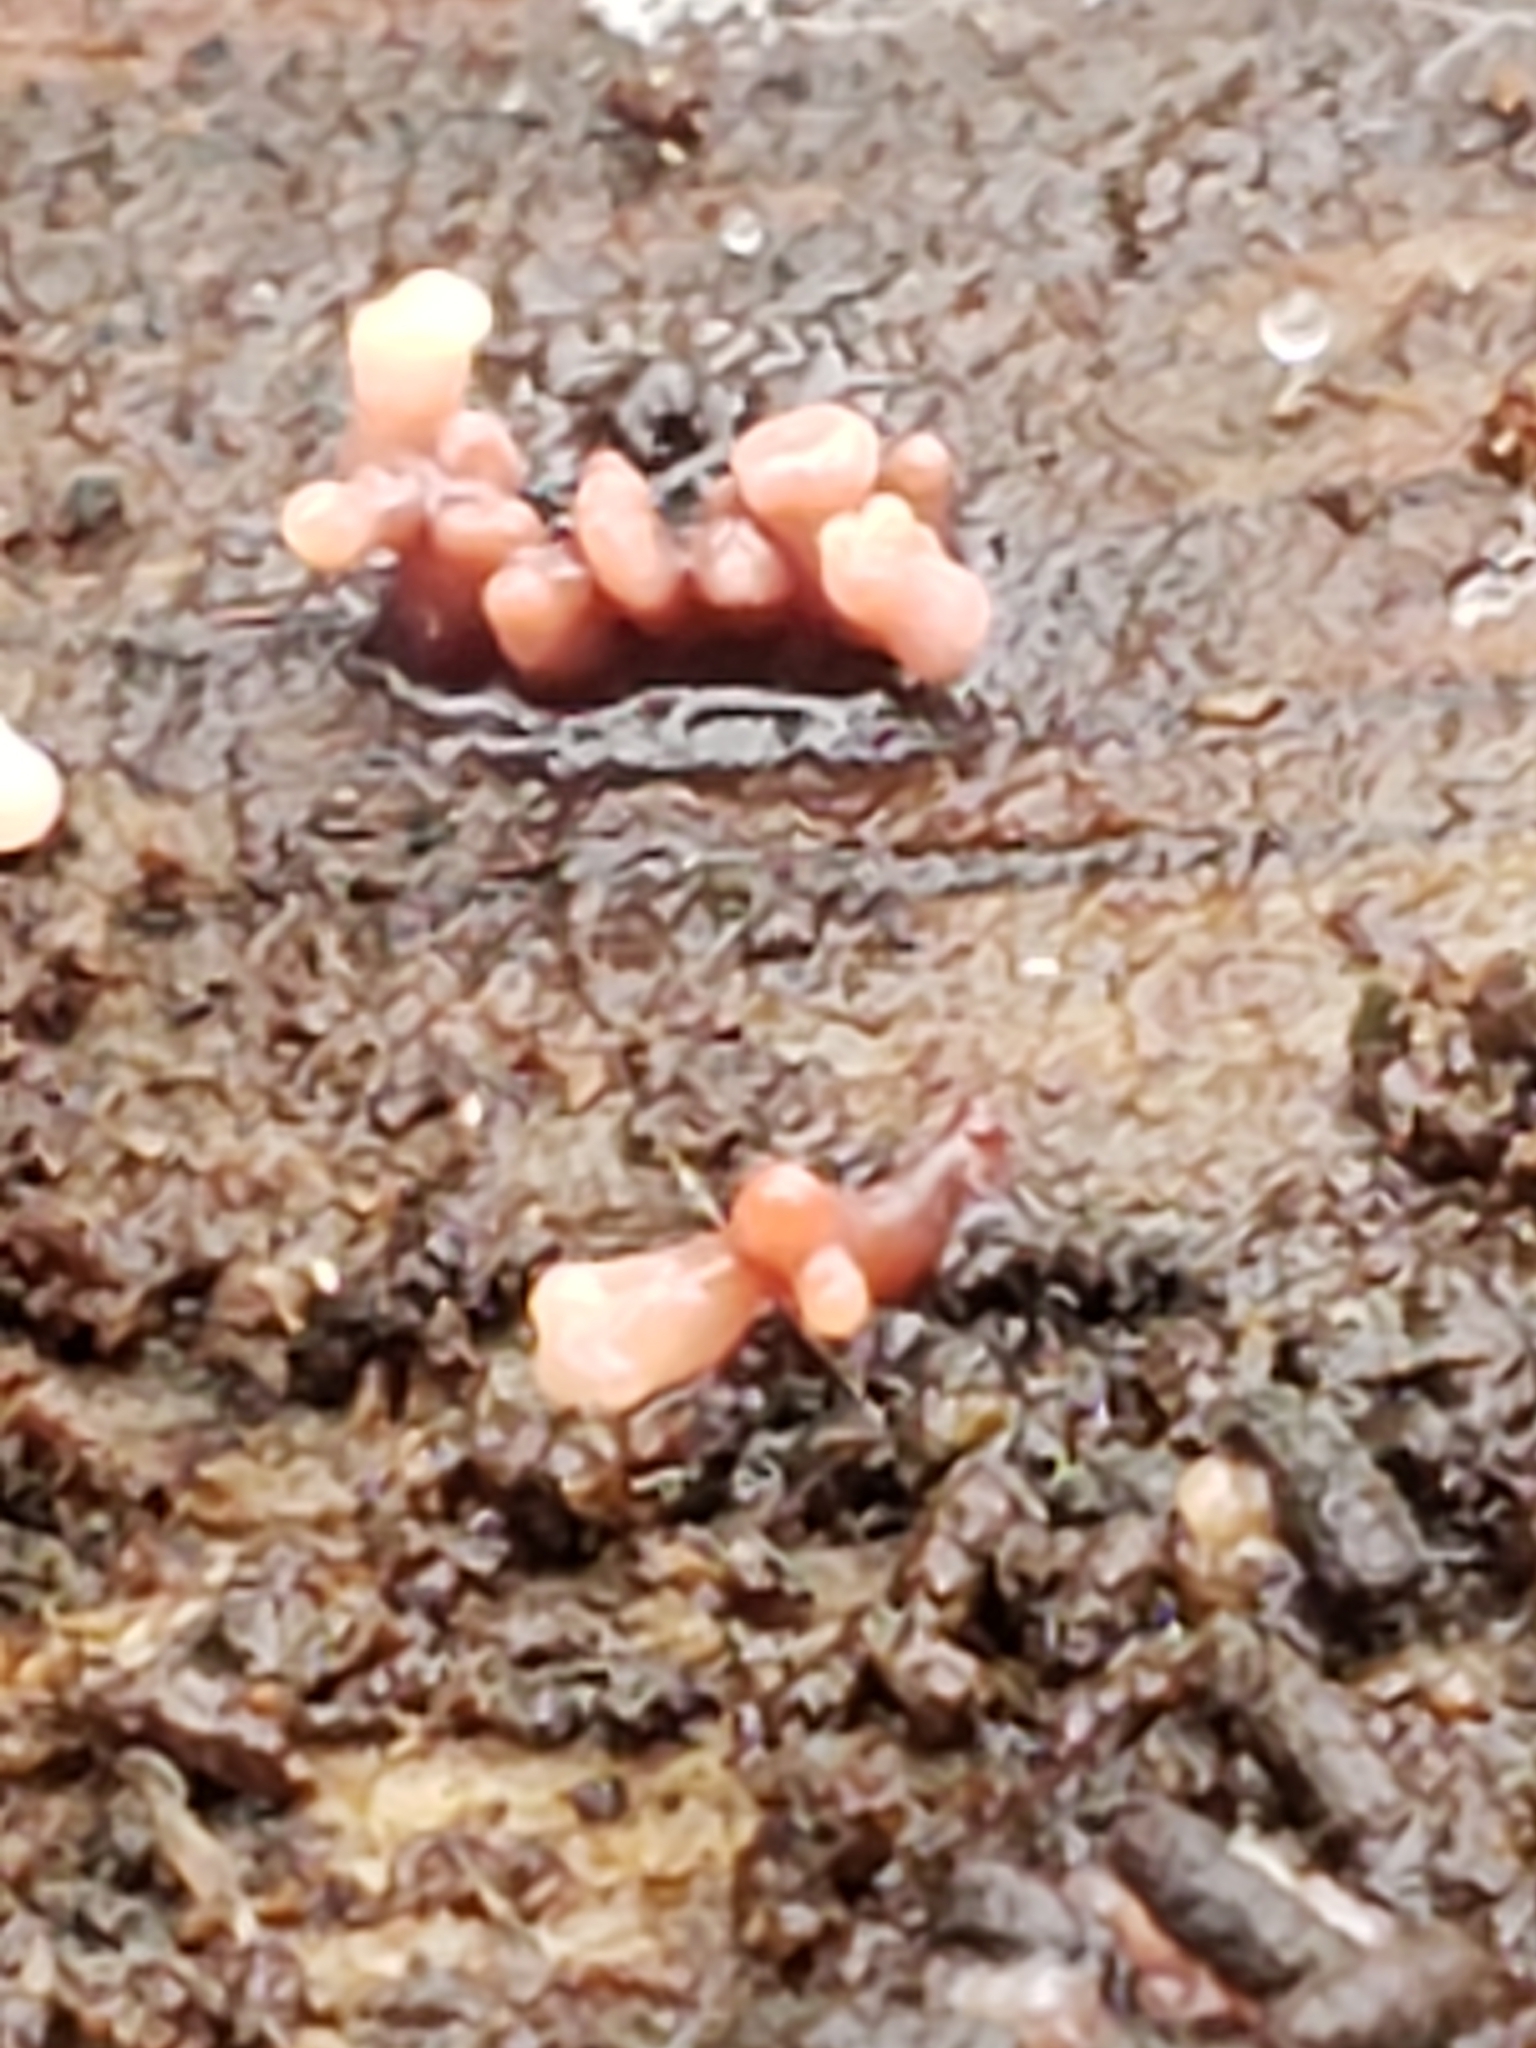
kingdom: Fungi
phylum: Ascomycota
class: Leotiomycetes
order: Helotiales
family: Gelatinodiscaceae
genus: Ascocoryne
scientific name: Ascocoryne sarcoides
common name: Purple jellydisc
